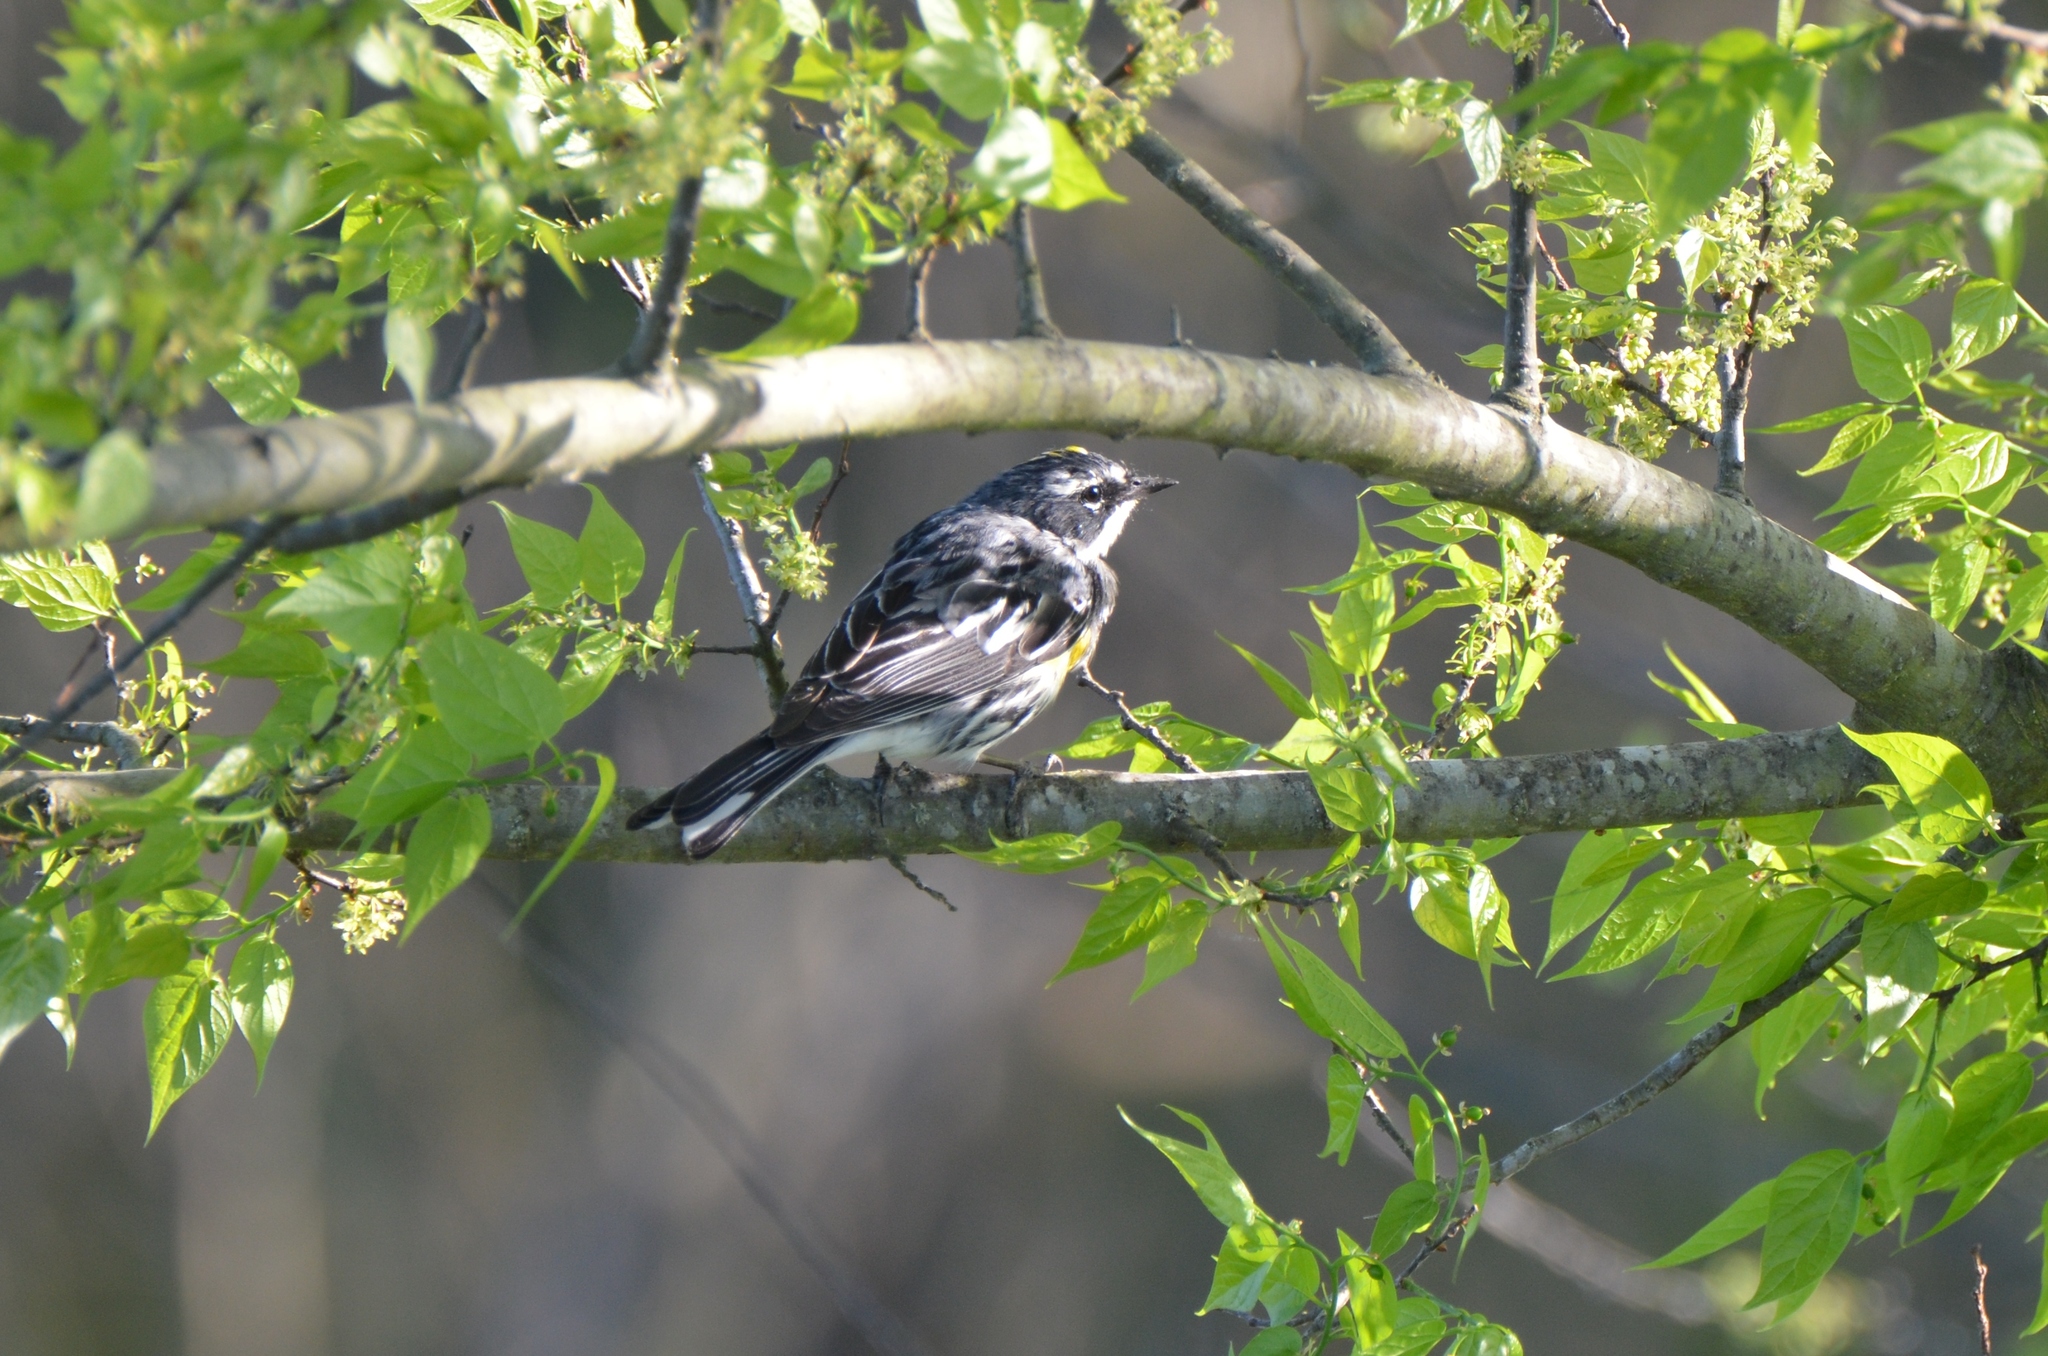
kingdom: Animalia
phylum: Chordata
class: Aves
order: Passeriformes
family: Parulidae
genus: Setophaga
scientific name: Setophaga coronata
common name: Myrtle warbler
